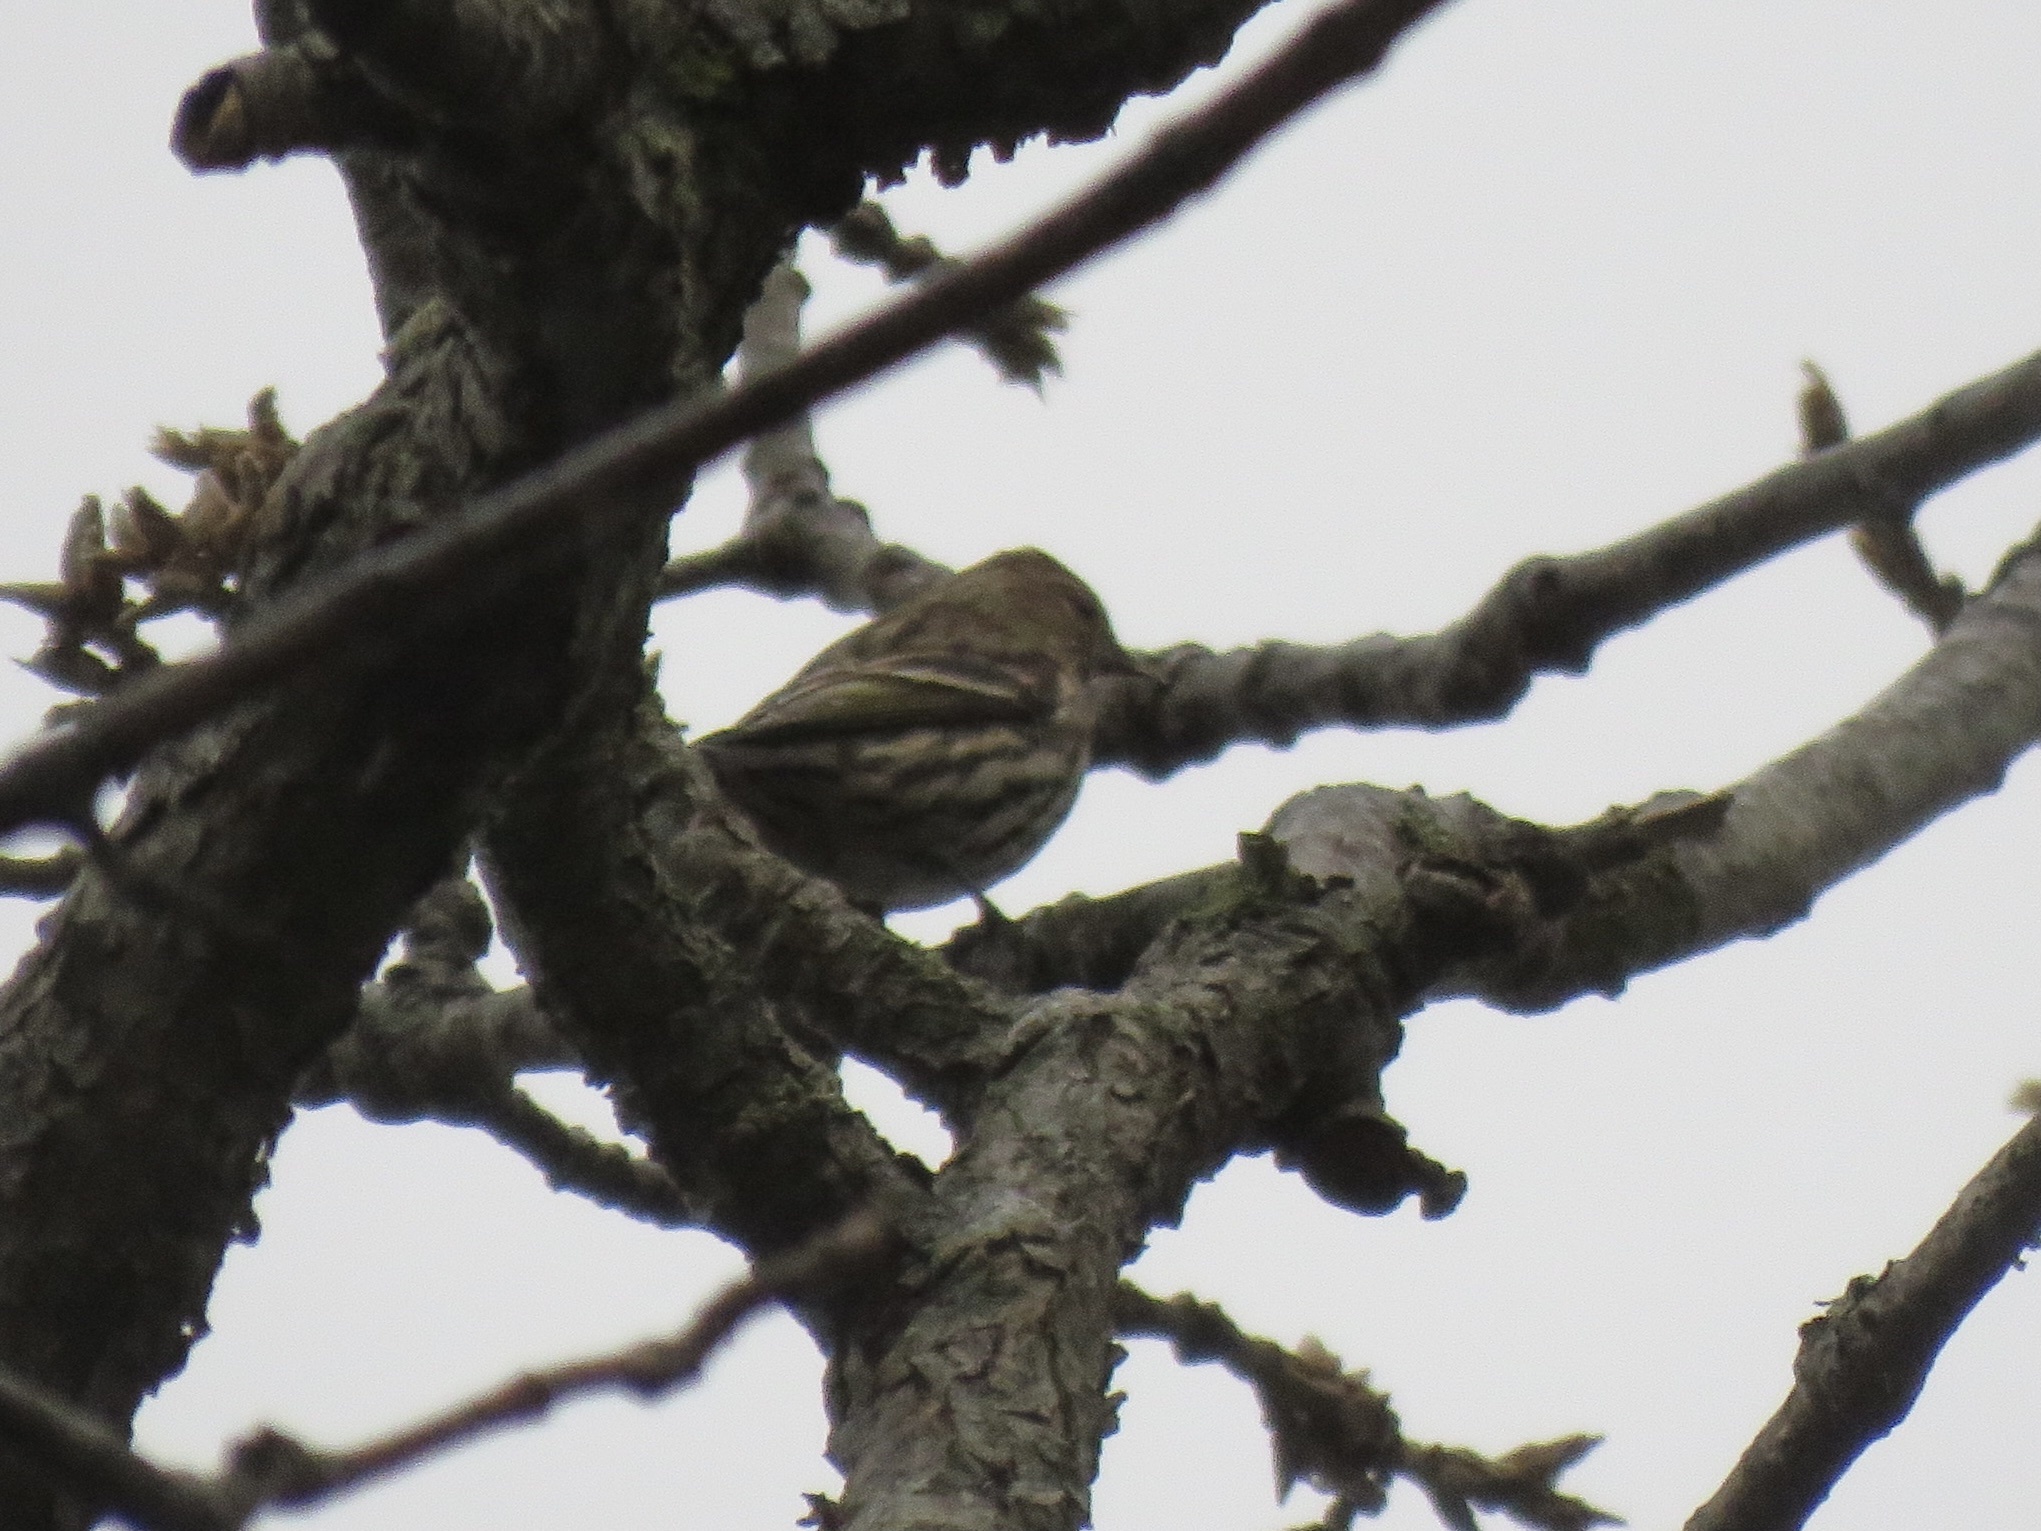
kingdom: Animalia
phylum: Chordata
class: Aves
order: Passeriformes
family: Fringillidae
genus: Spinus
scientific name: Spinus pinus
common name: Pine siskin
